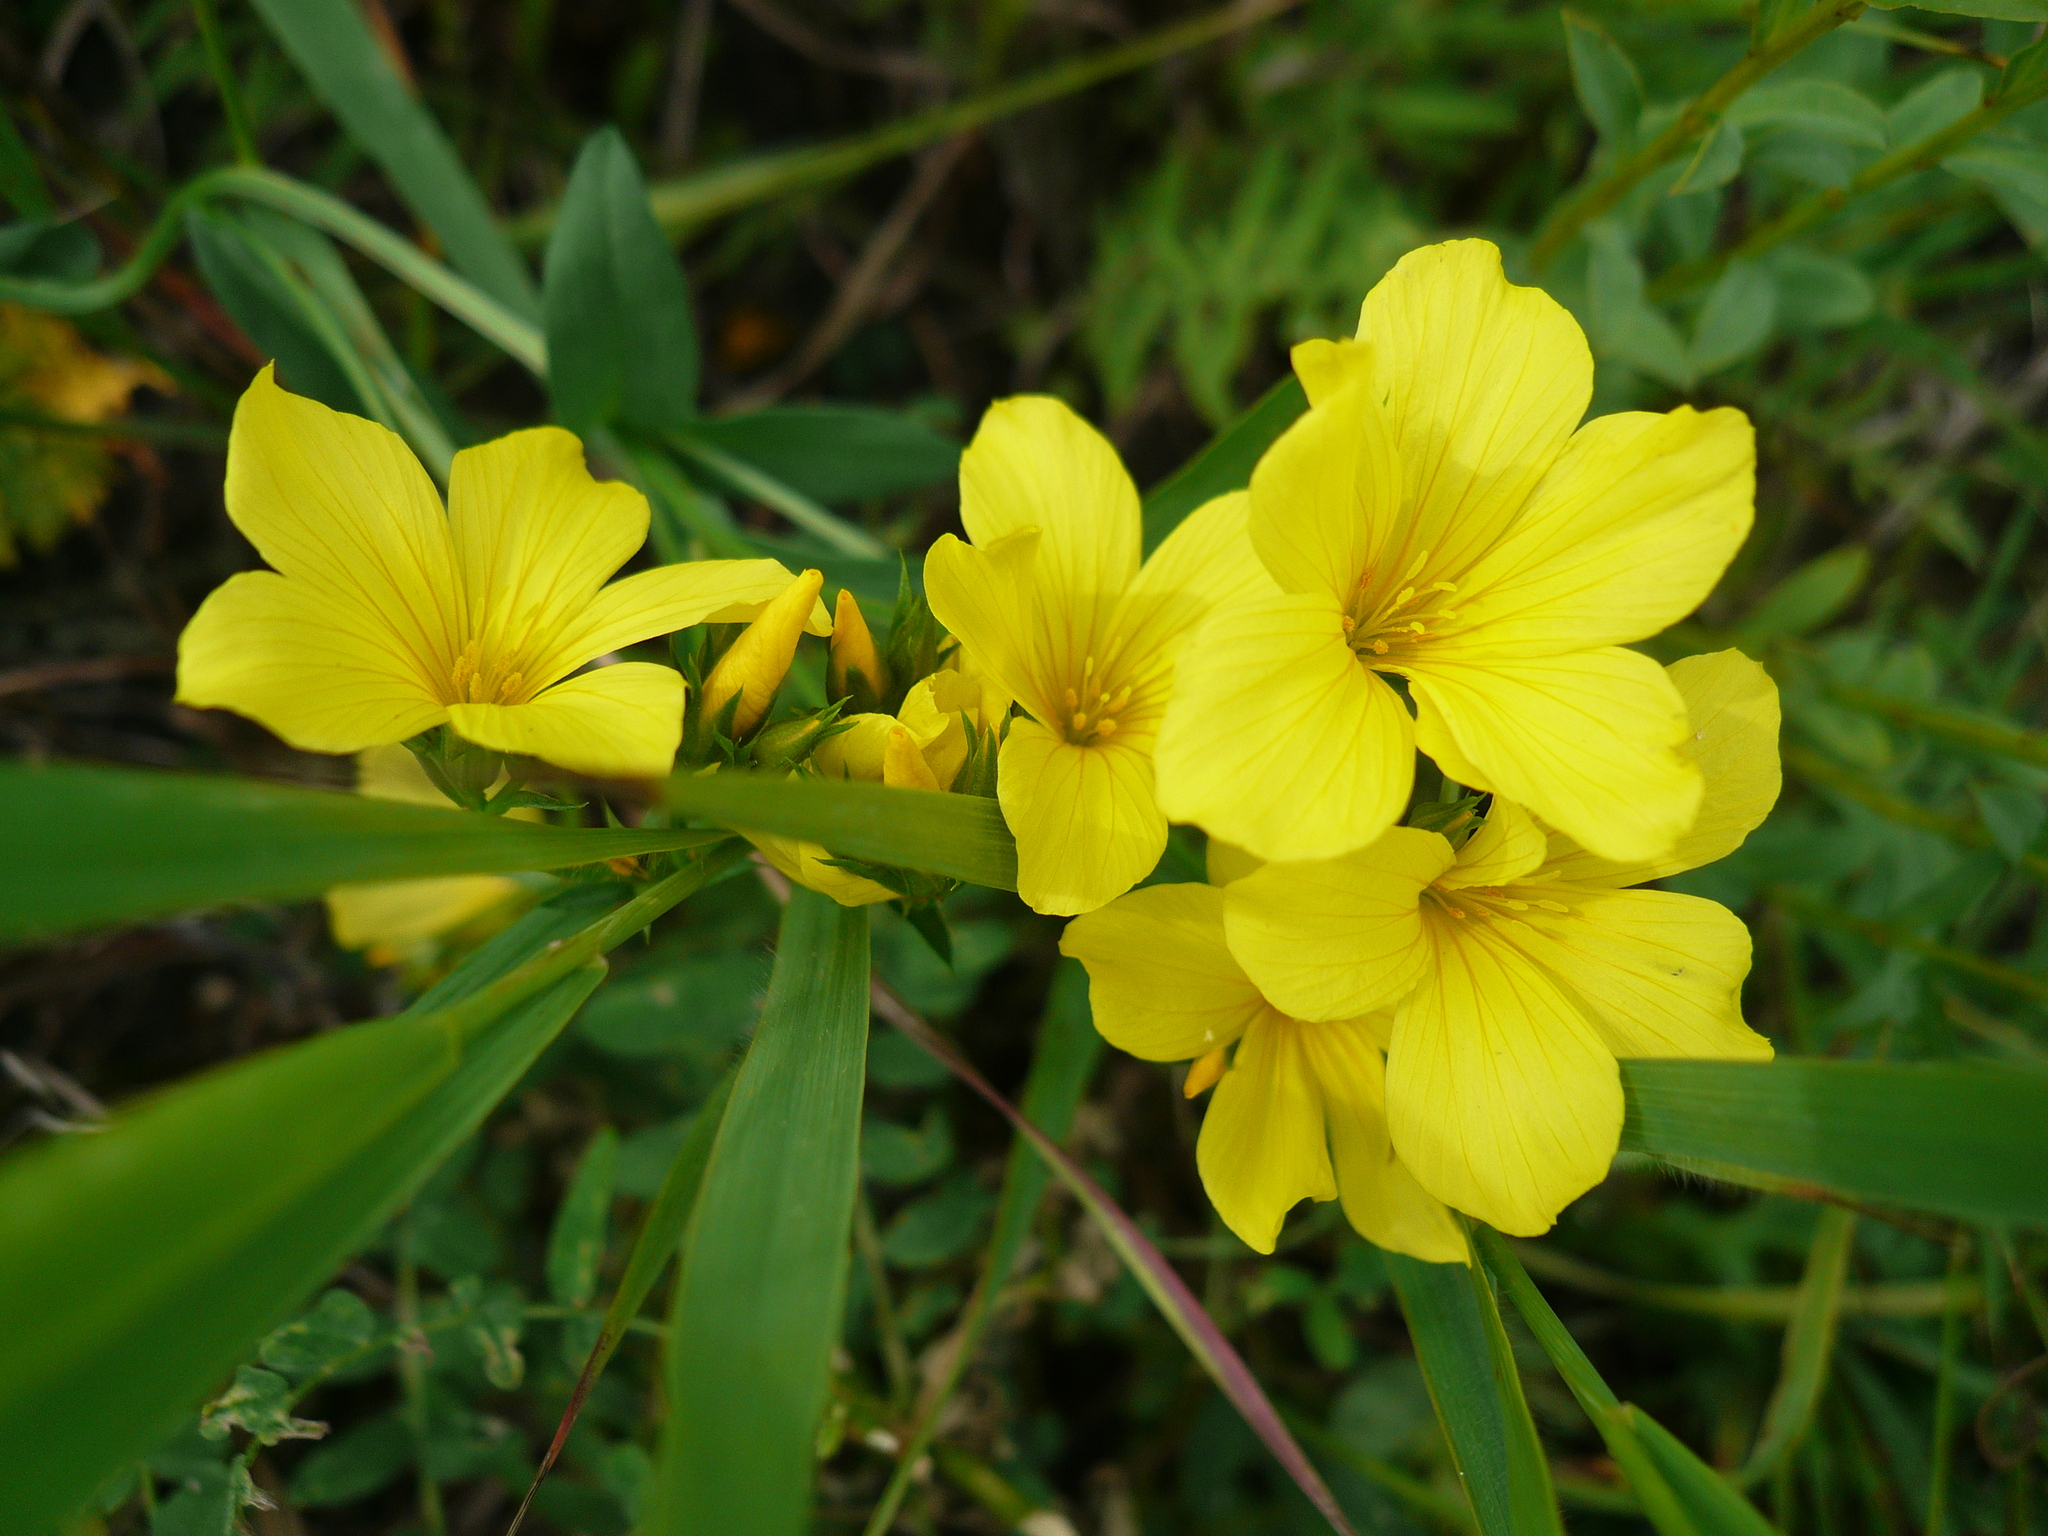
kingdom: Plantae
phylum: Tracheophyta
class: Magnoliopsida
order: Malpighiales
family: Linaceae
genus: Linum
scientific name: Linum flavum
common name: Yellow flax
